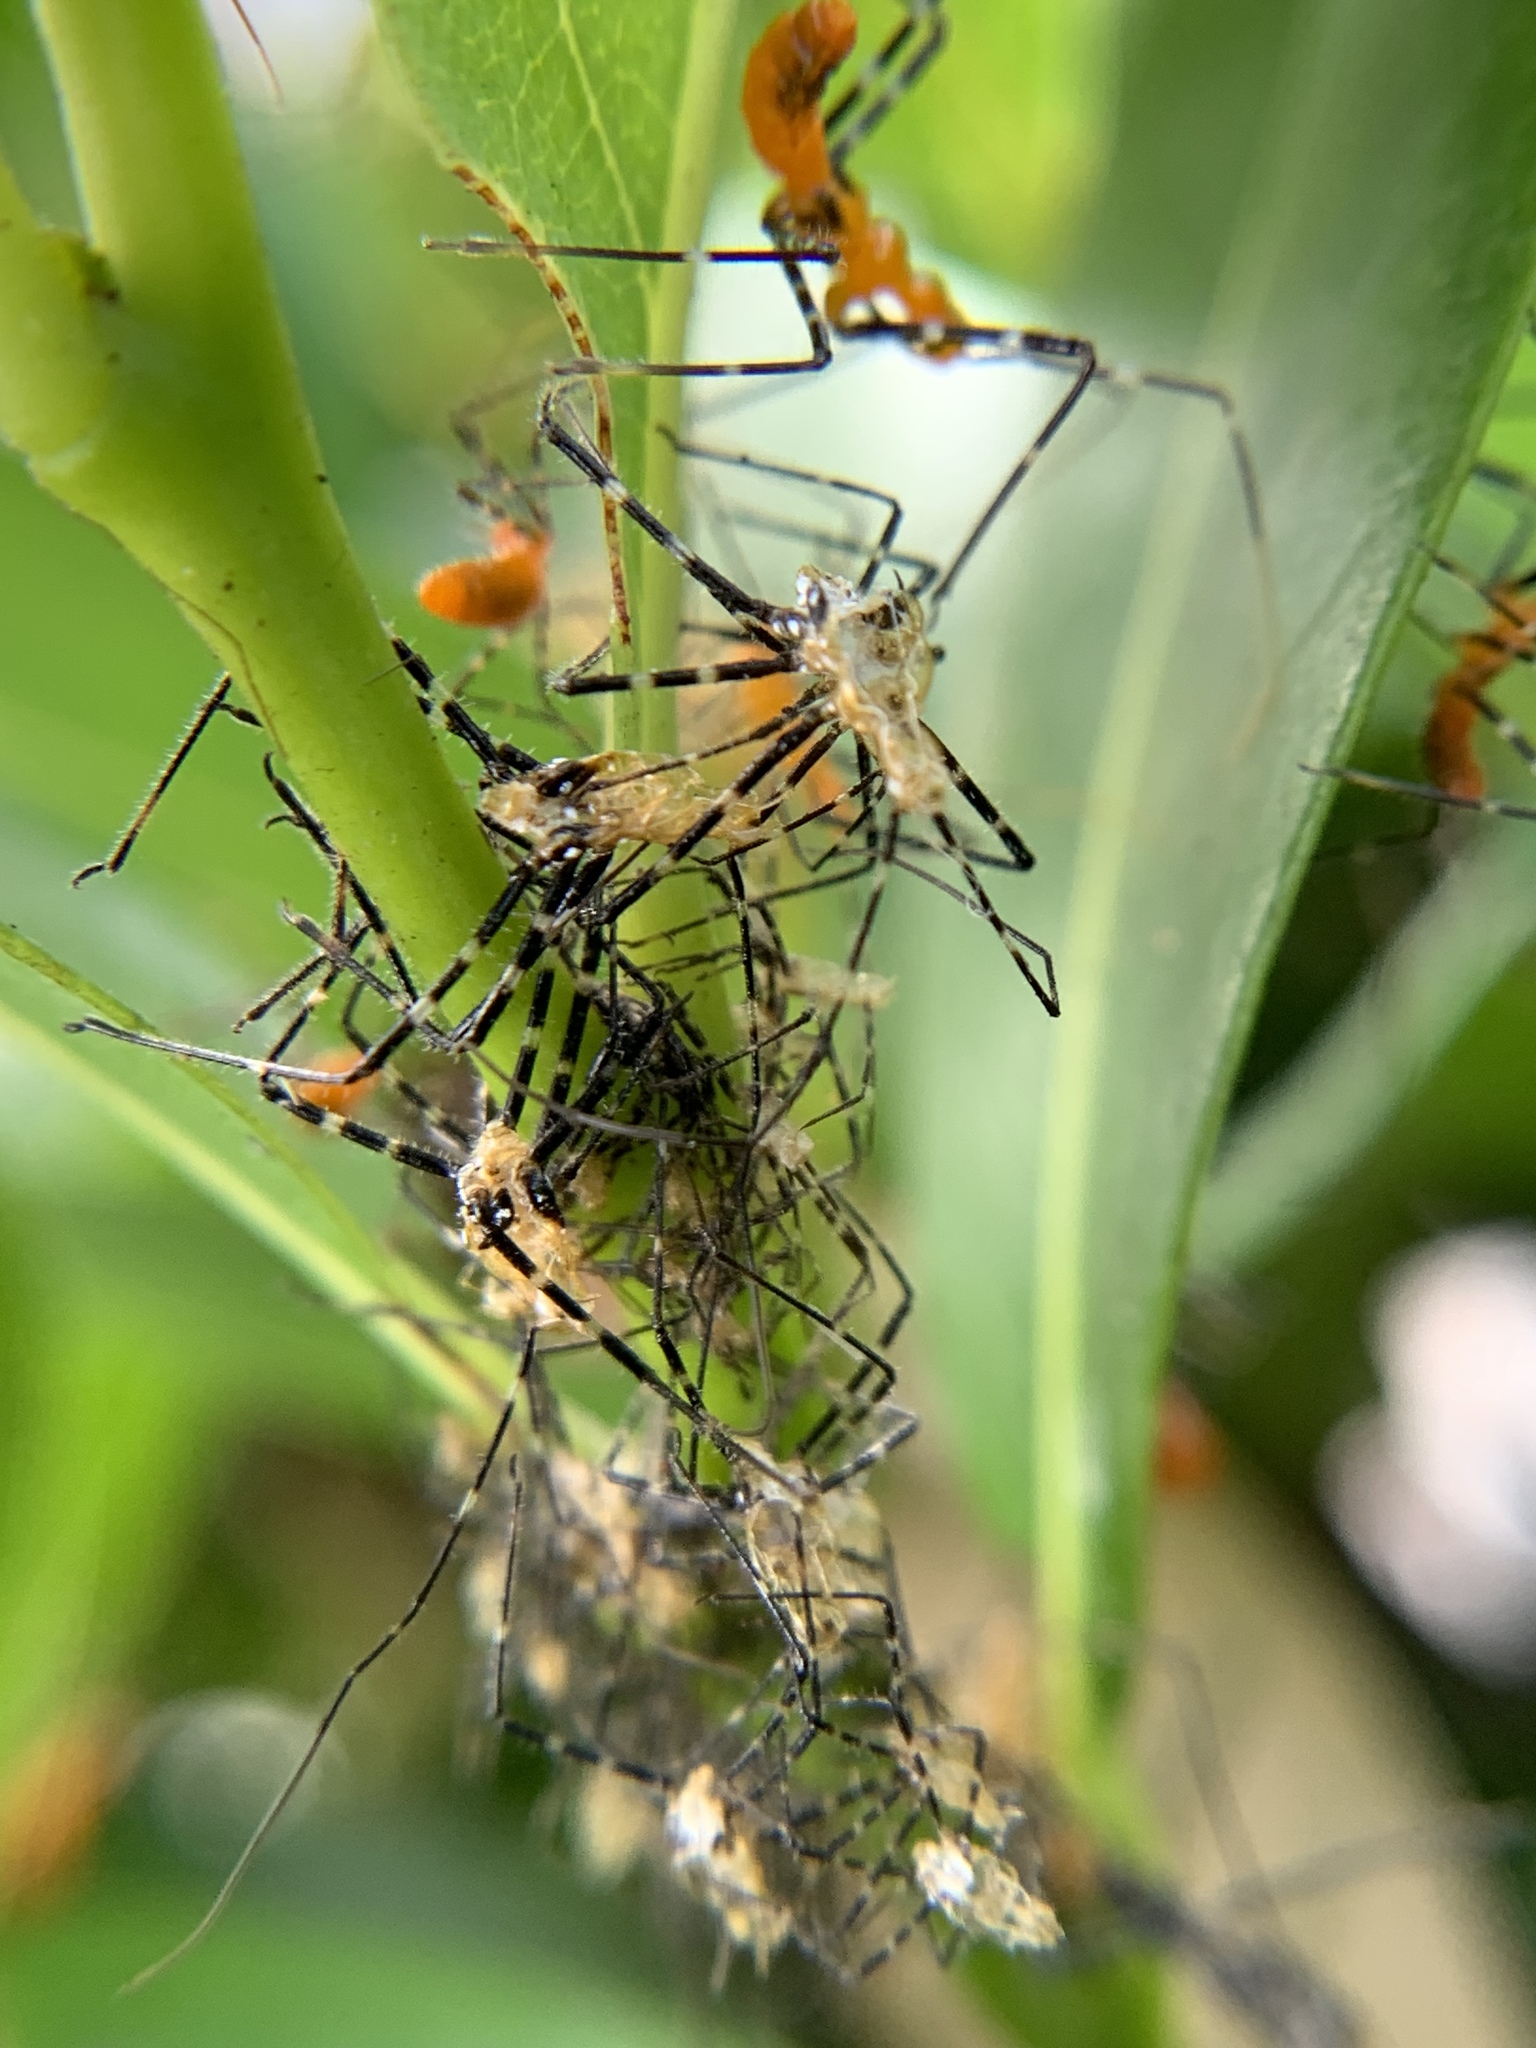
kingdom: Animalia
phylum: Arthropoda
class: Insecta
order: Hemiptera
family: Reduviidae
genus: Zelus
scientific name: Zelus longipes
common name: Milkweed assassin bug
